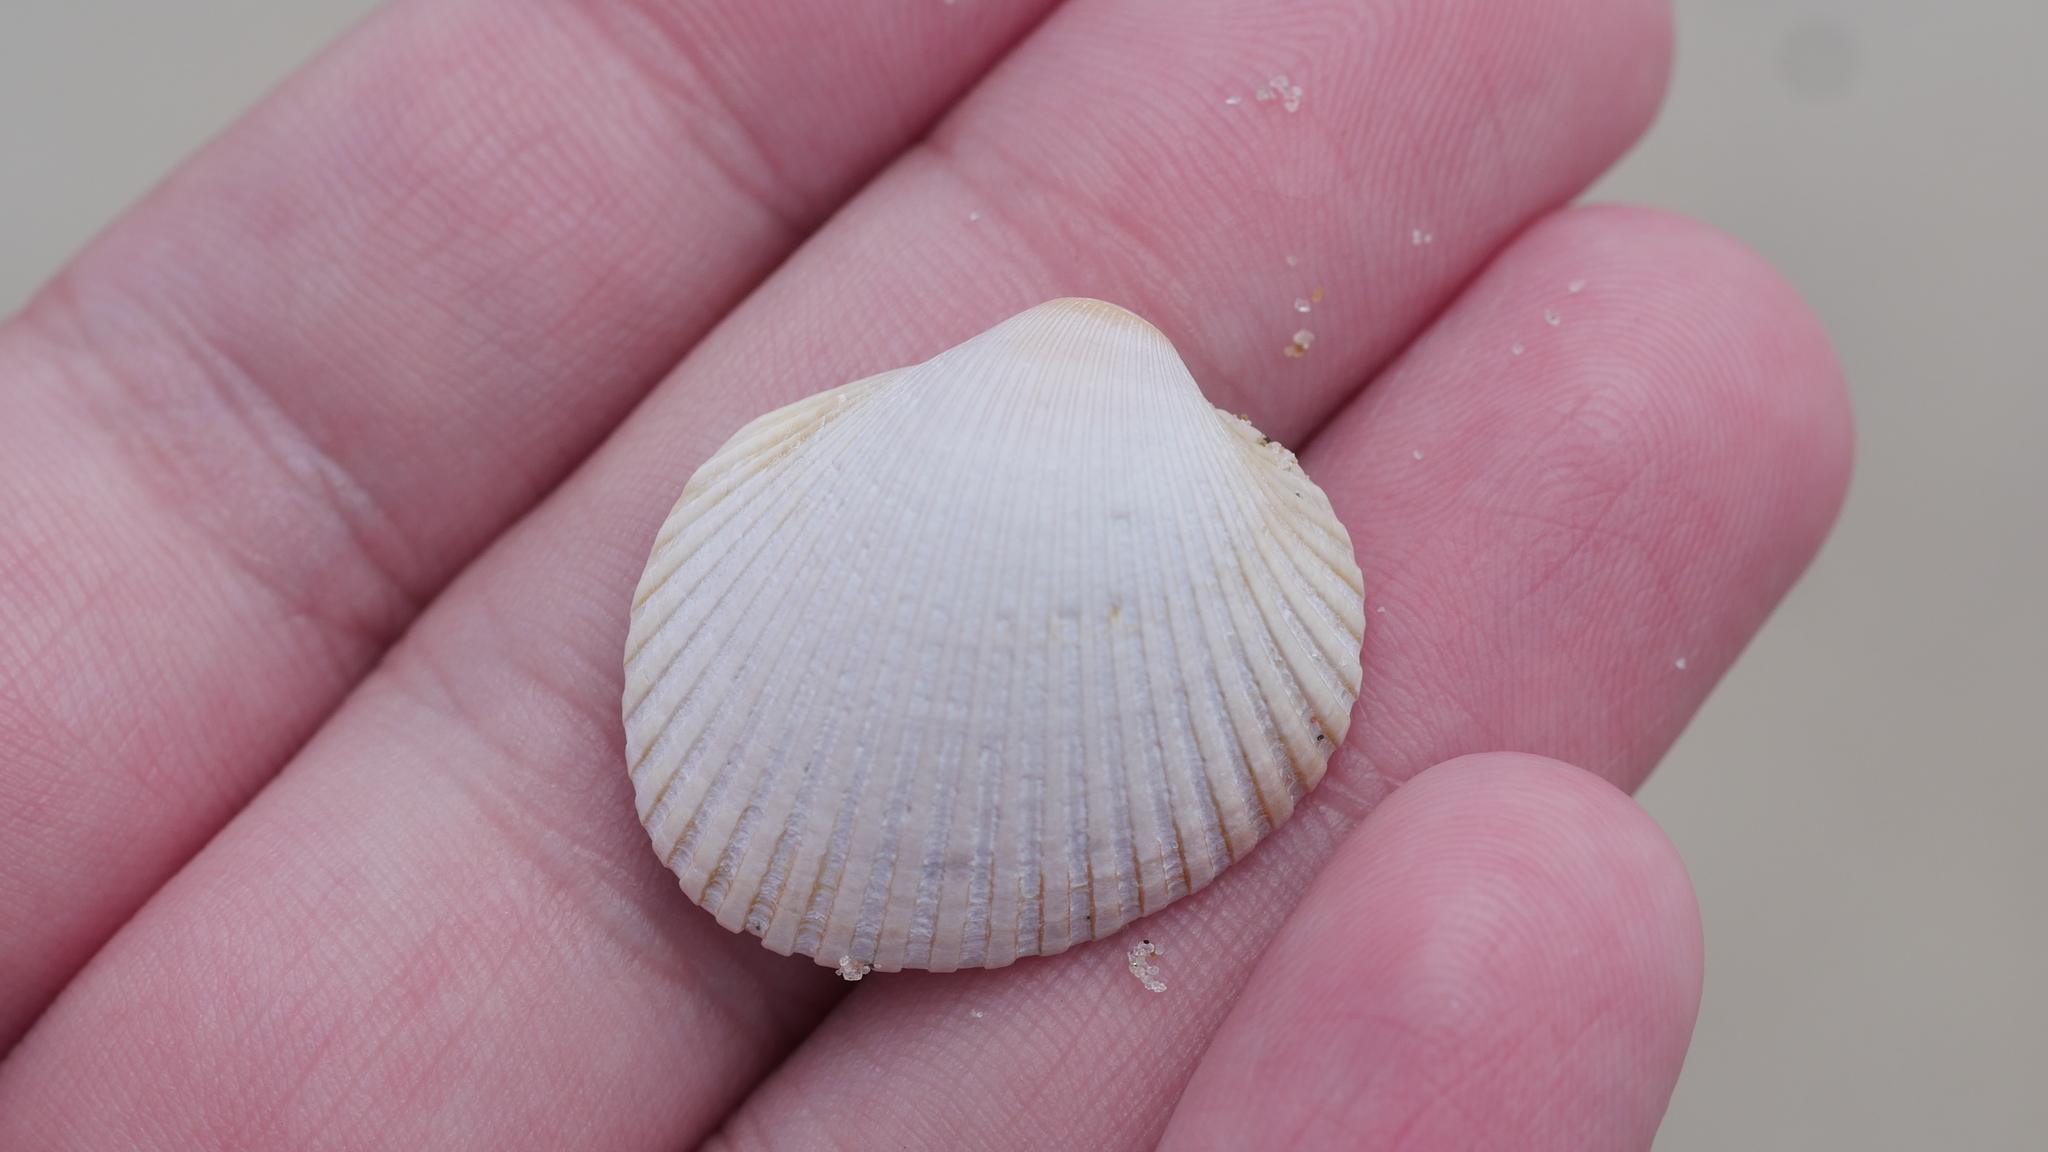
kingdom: Animalia
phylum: Mollusca
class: Bivalvia
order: Arcida
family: Arcidae
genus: Lunarca
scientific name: Lunarca ovalis
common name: Blood ark
